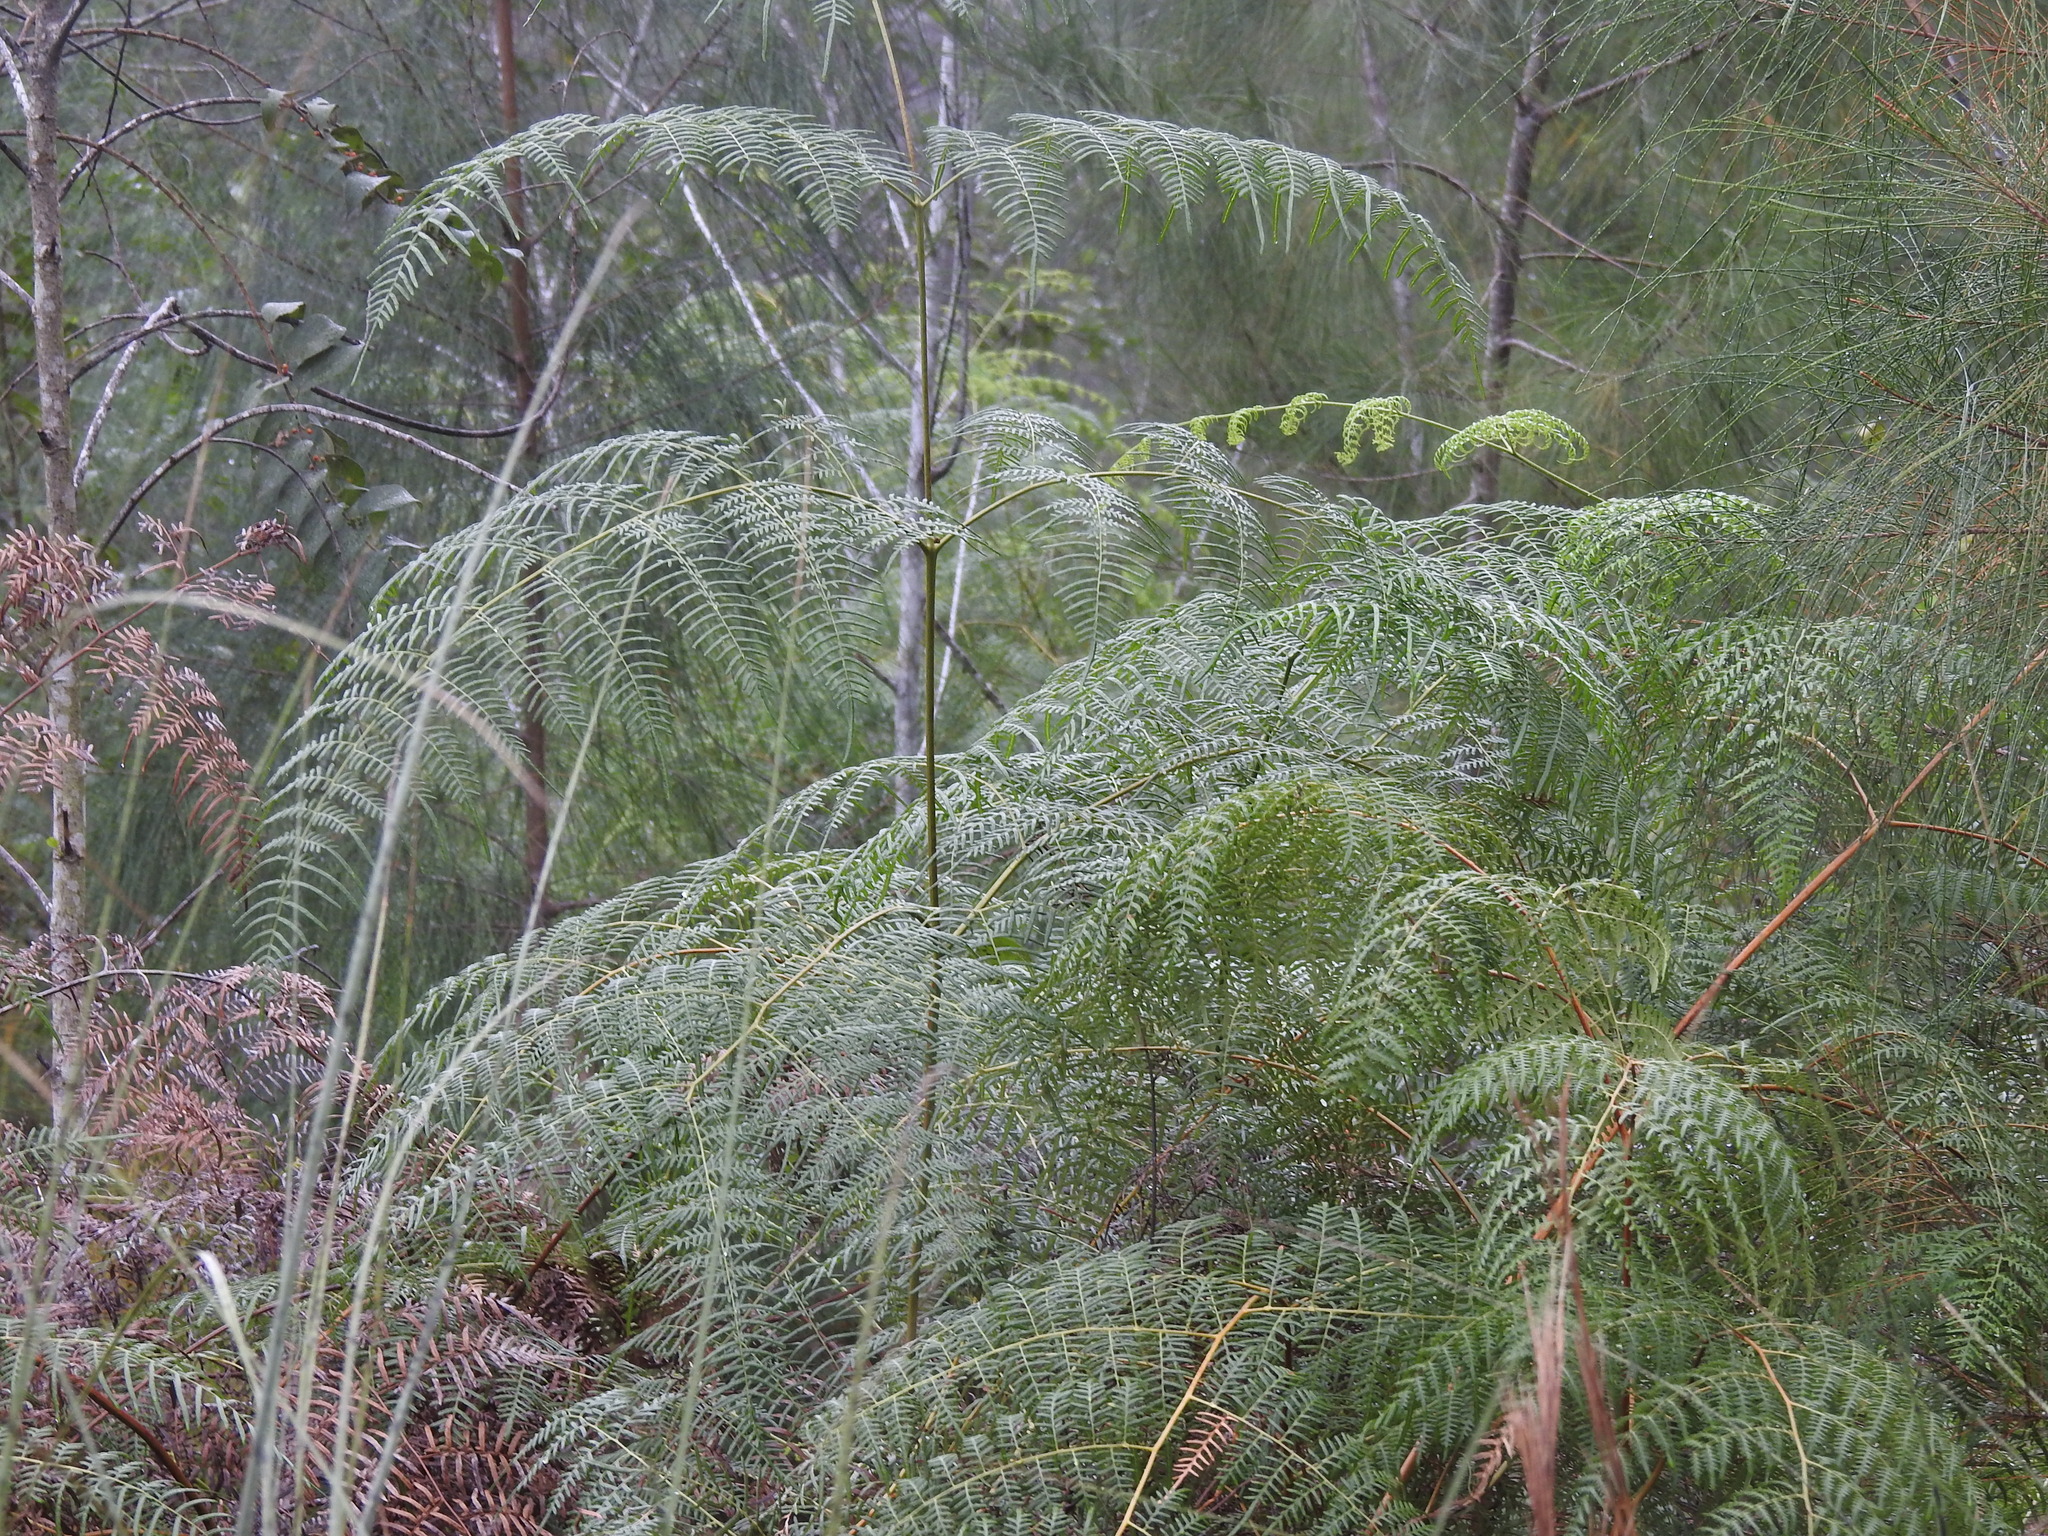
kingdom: Plantae
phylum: Tracheophyta
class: Polypodiopsida
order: Polypodiales
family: Dennstaedtiaceae
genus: Pteridium
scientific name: Pteridium caudatum
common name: Southern bracken fern
